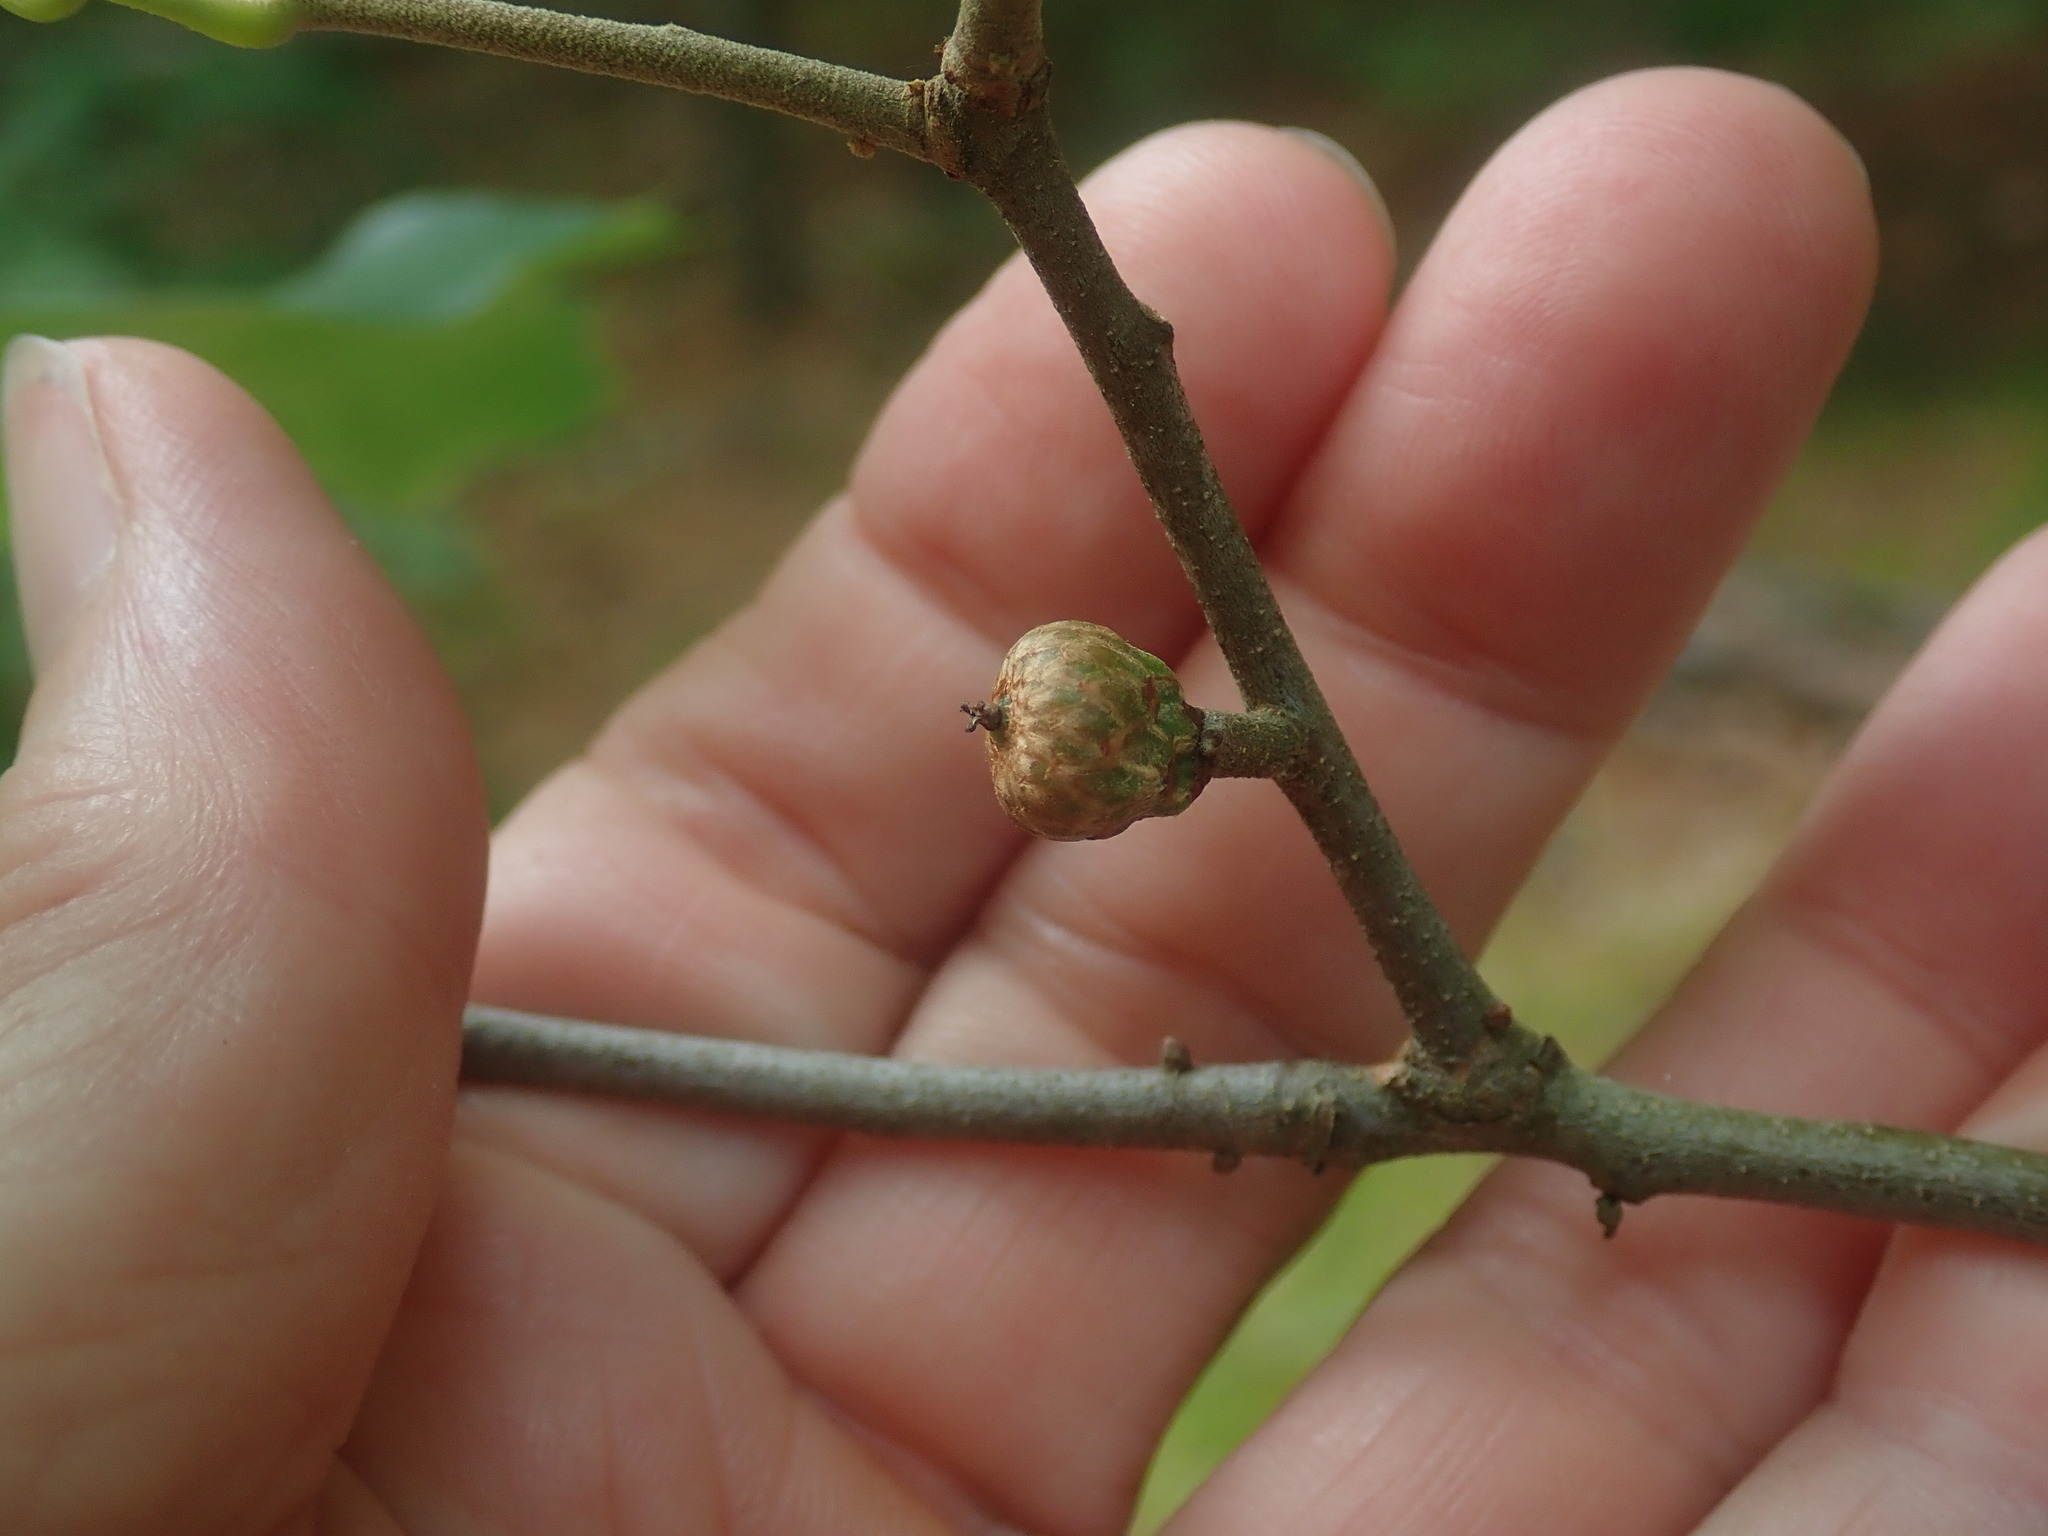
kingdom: Plantae
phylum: Tracheophyta
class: Magnoliopsida
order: Fagales
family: Fagaceae
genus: Quercus
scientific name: Quercus ilicifolia
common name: Bear oak
